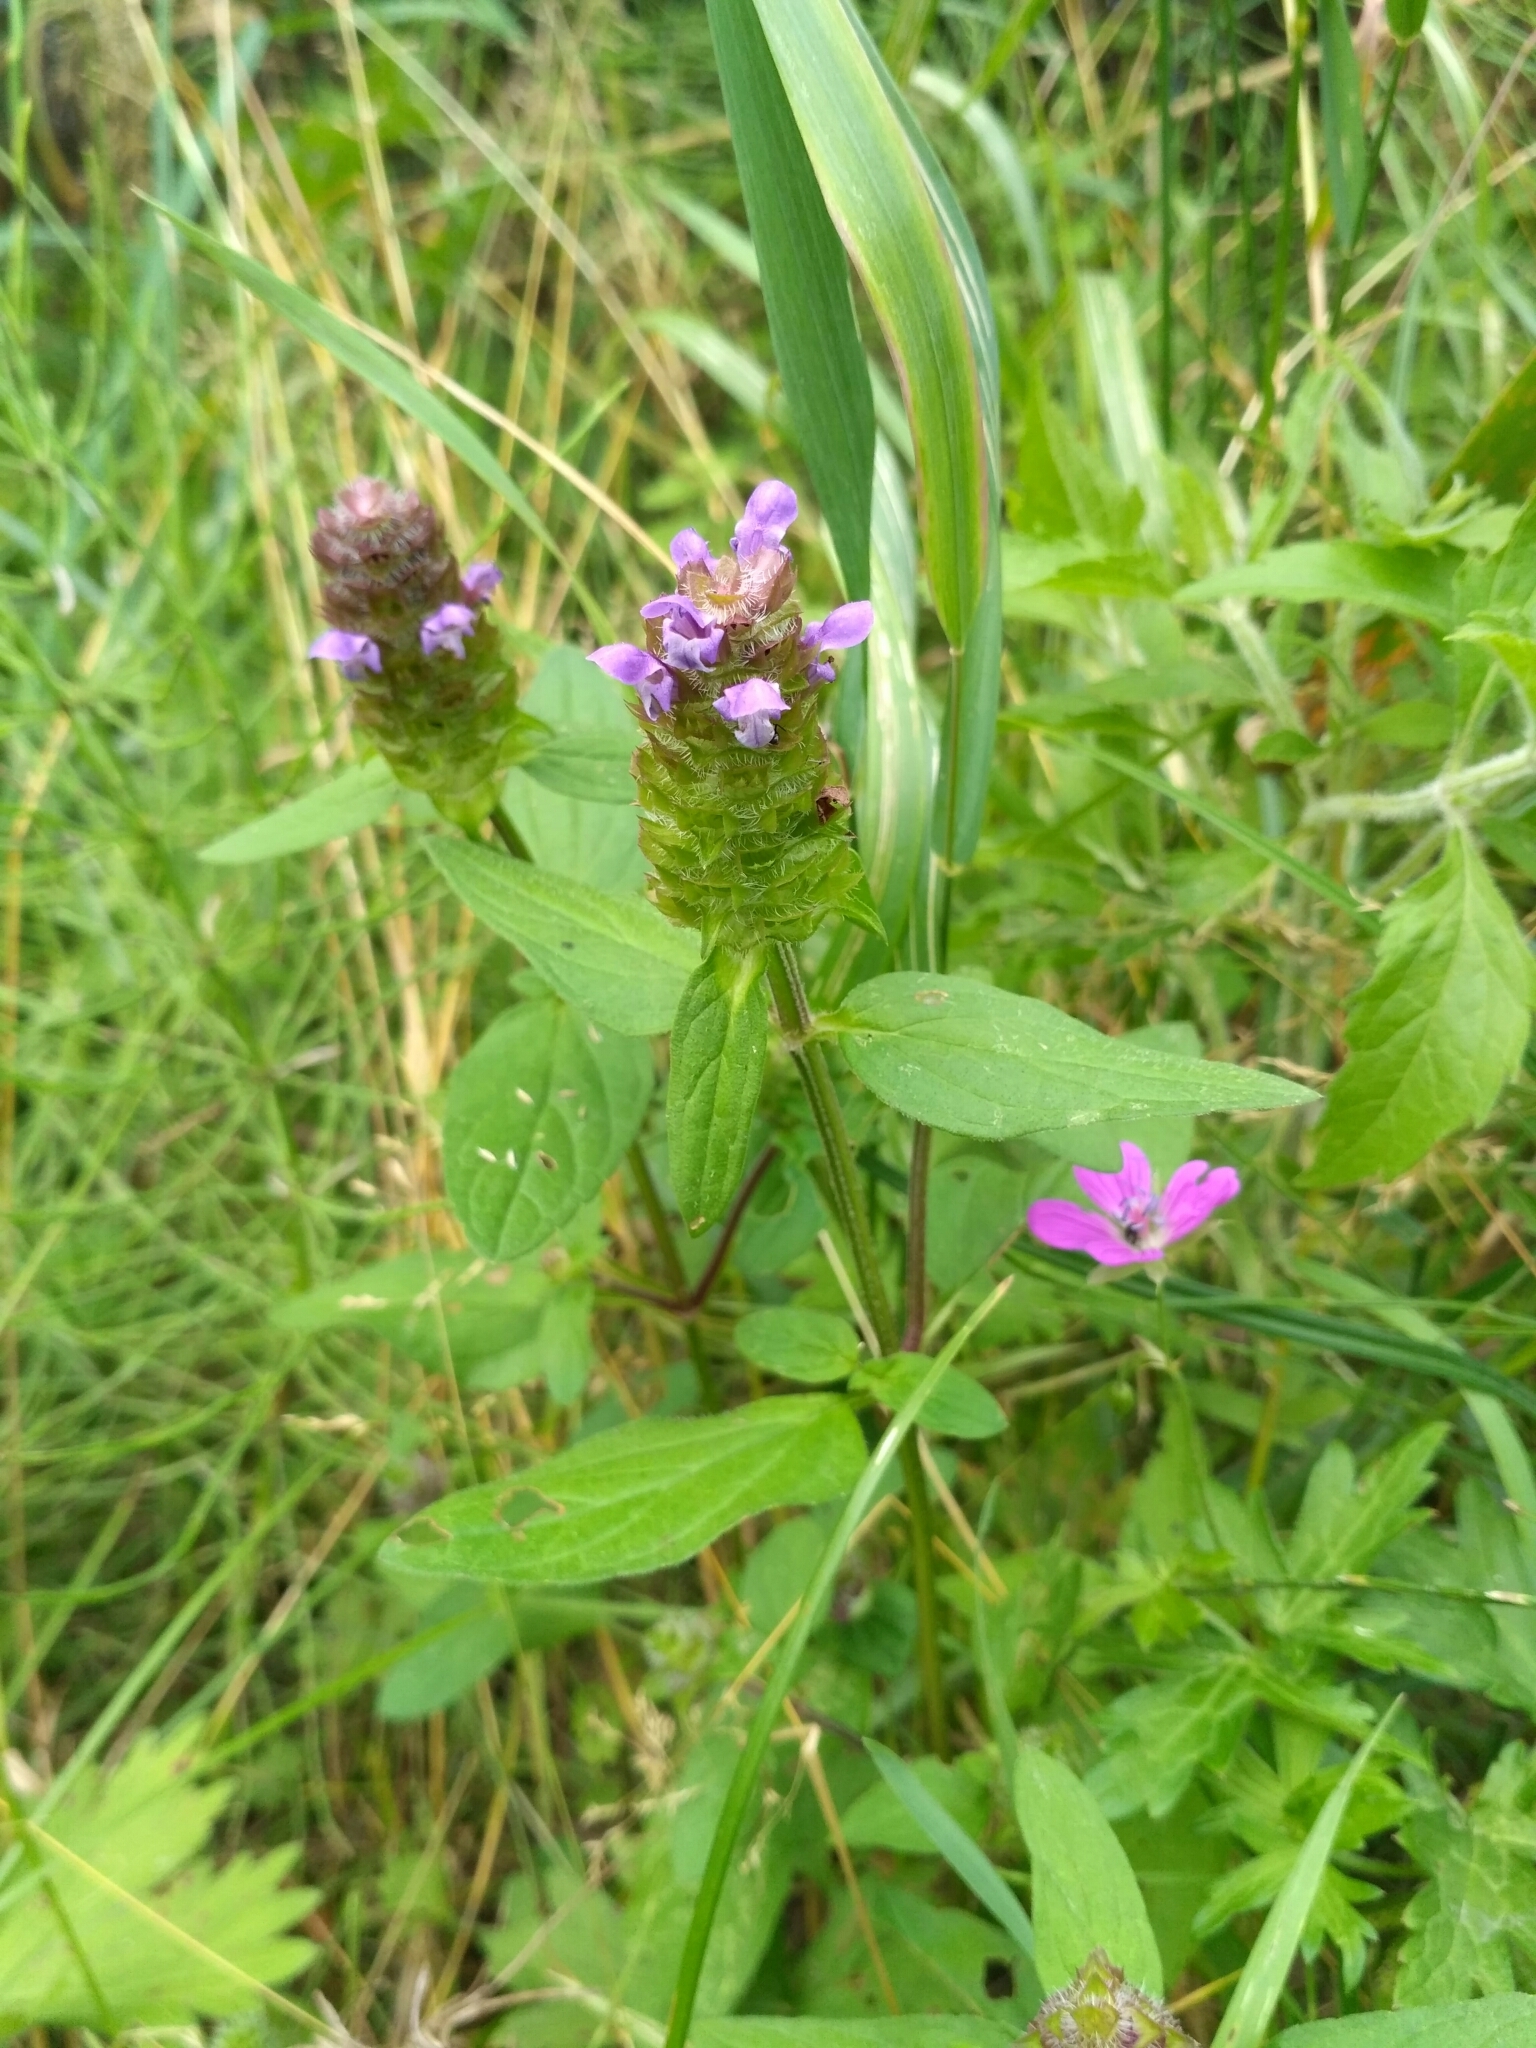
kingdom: Plantae
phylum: Tracheophyta
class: Magnoliopsida
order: Lamiales
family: Lamiaceae
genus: Prunella
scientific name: Prunella vulgaris
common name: Heal-all
